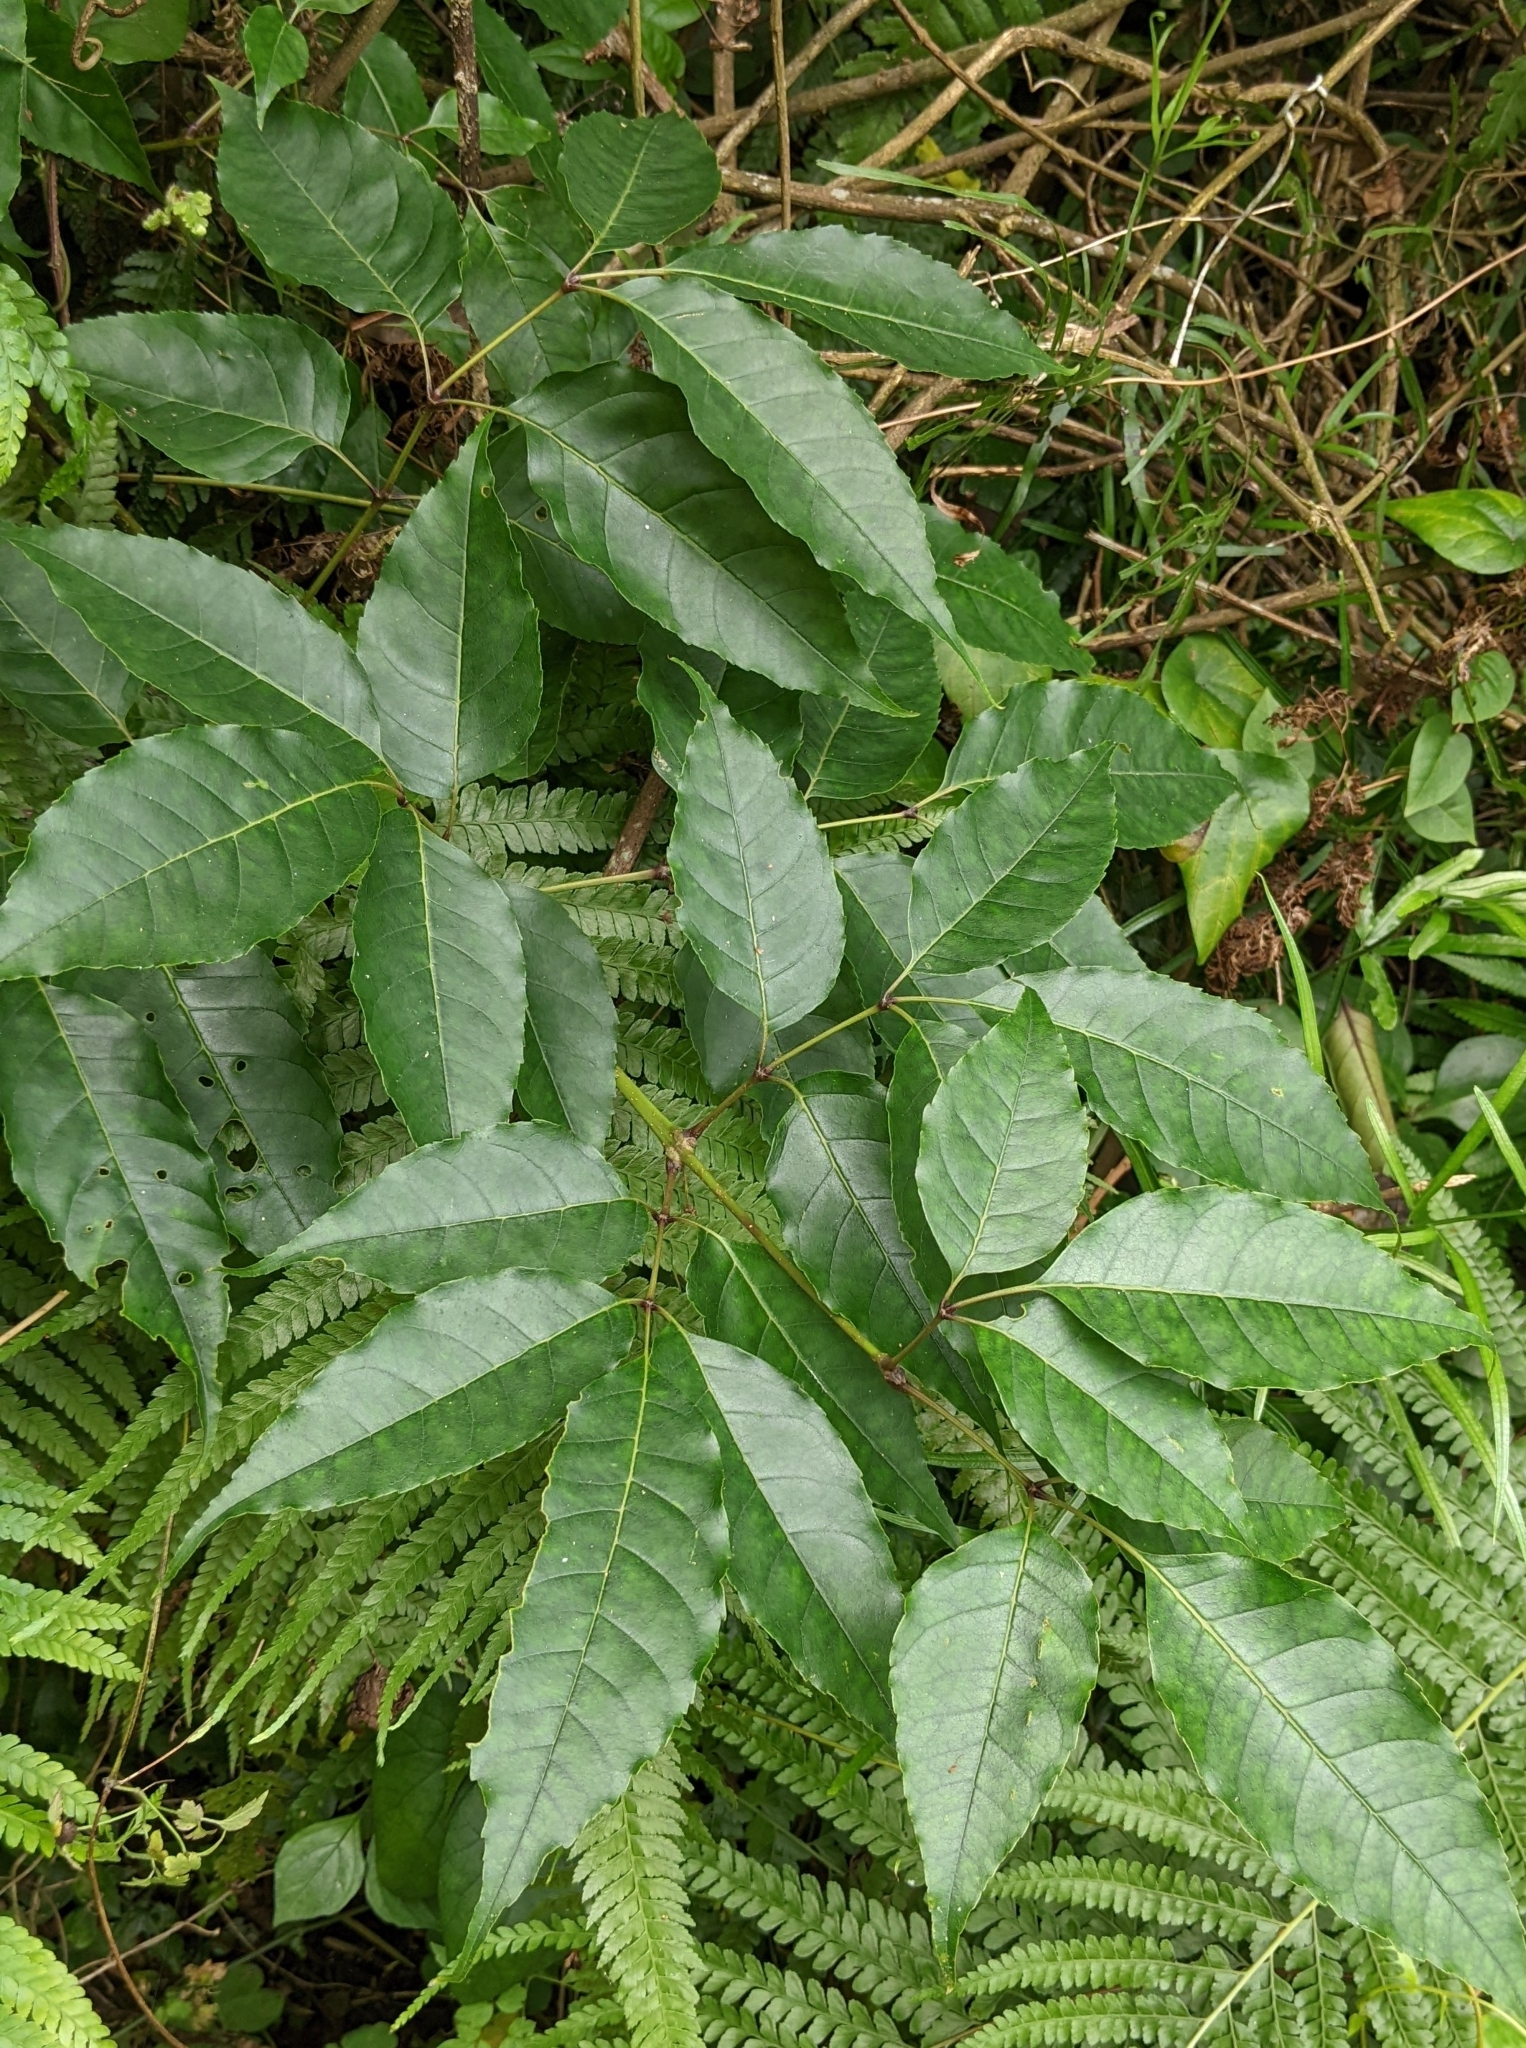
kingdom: Plantae
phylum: Tracheophyta
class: Magnoliopsida
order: Lamiales
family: Oleaceae
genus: Fraxinus
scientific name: Fraxinus insularis
